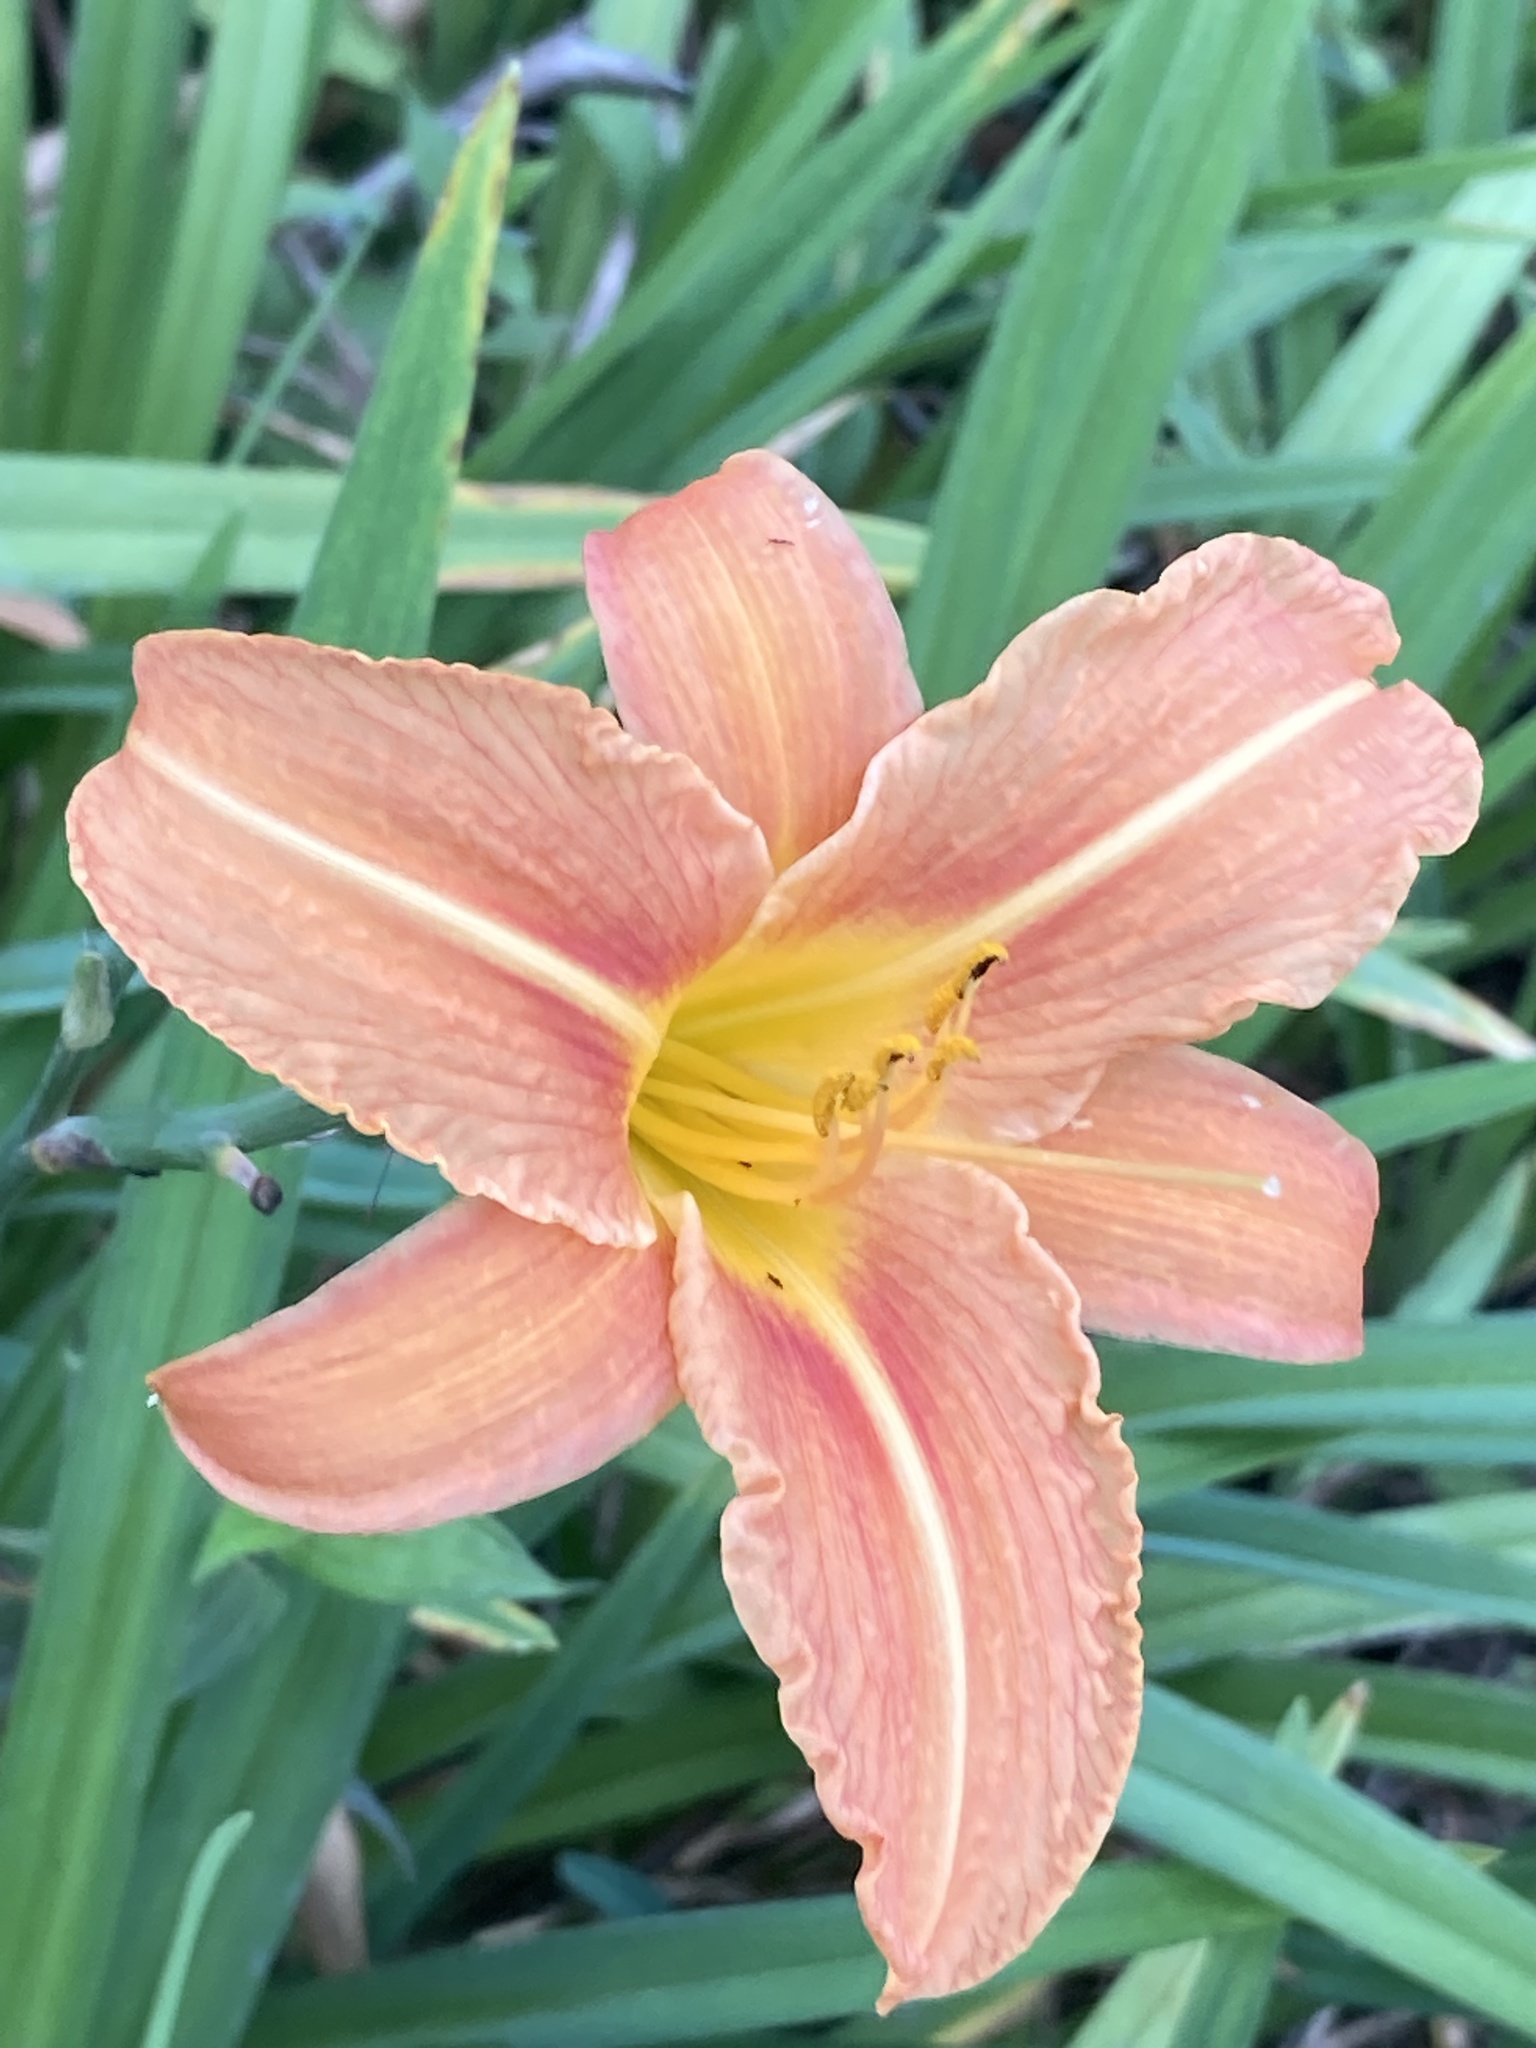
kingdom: Plantae
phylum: Tracheophyta
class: Liliopsida
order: Asparagales
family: Asphodelaceae
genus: Hemerocallis
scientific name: Hemerocallis fulva
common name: Orange day-lily
